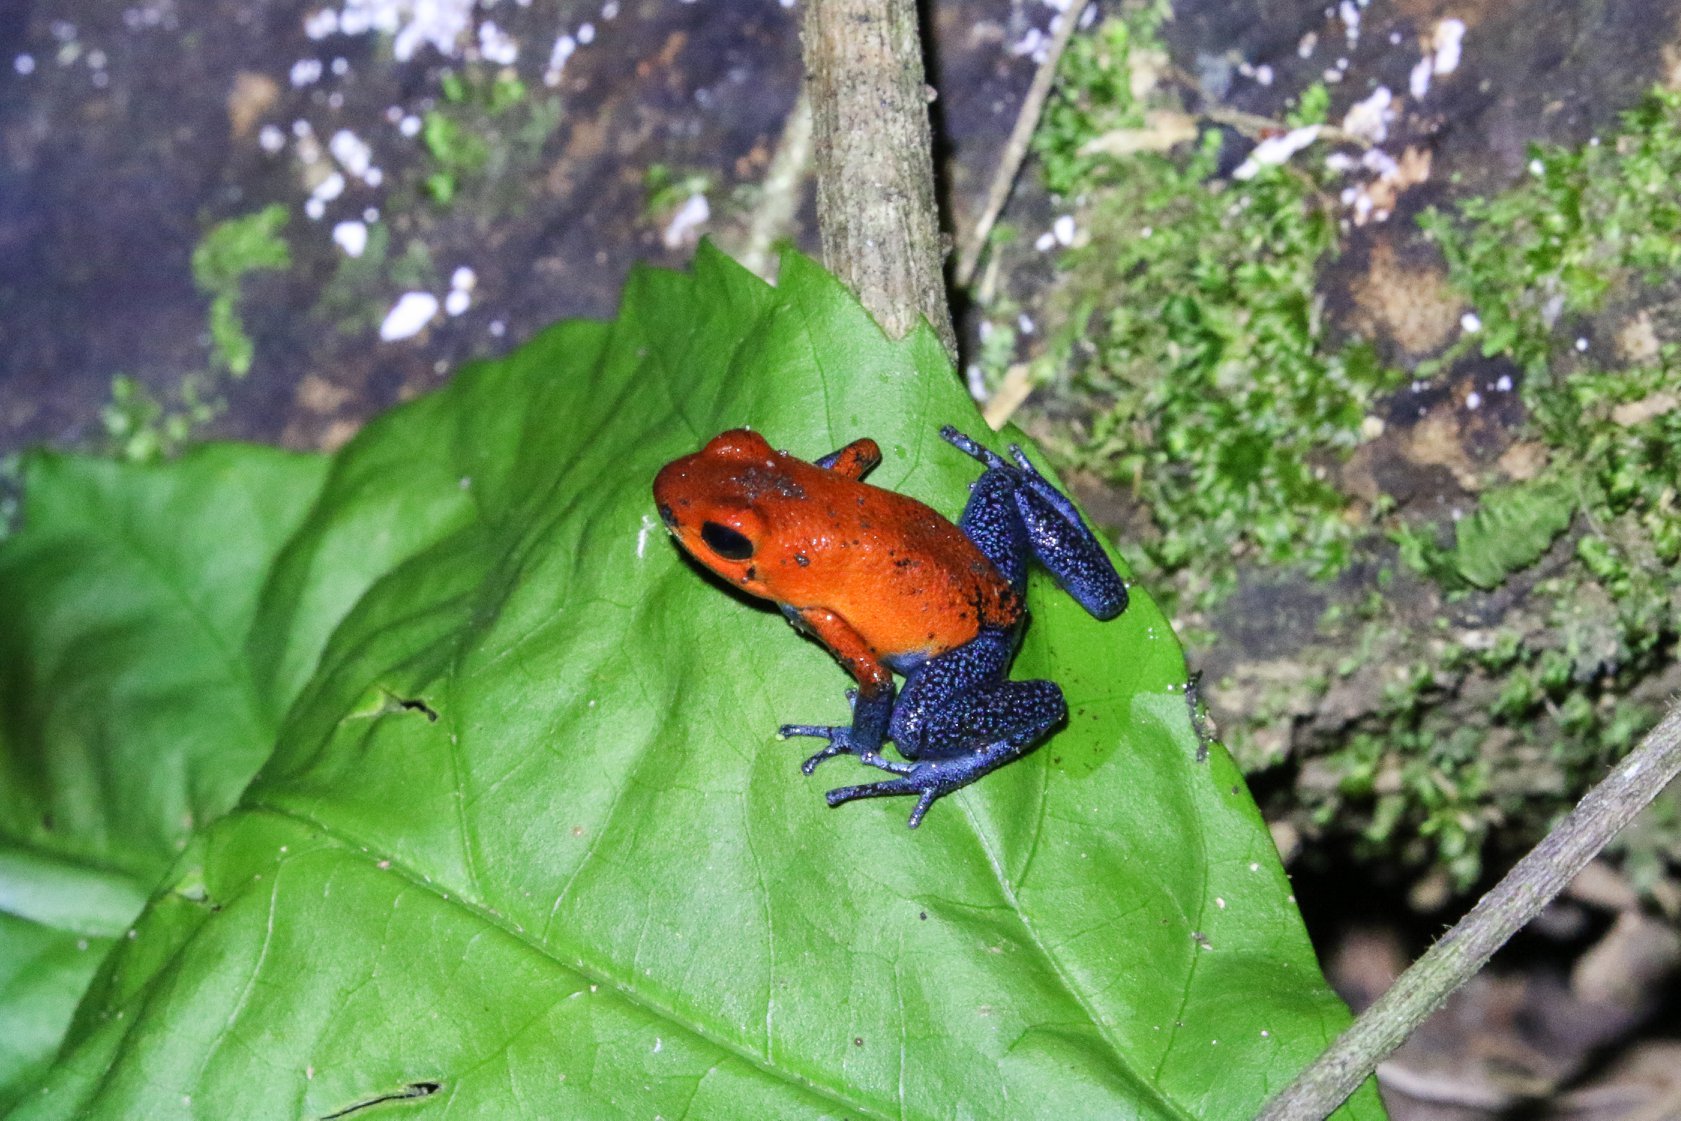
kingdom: Animalia
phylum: Chordata
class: Amphibia
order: Anura
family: Dendrobatidae
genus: Oophaga
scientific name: Oophaga pumilio
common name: Flaming poison frog
